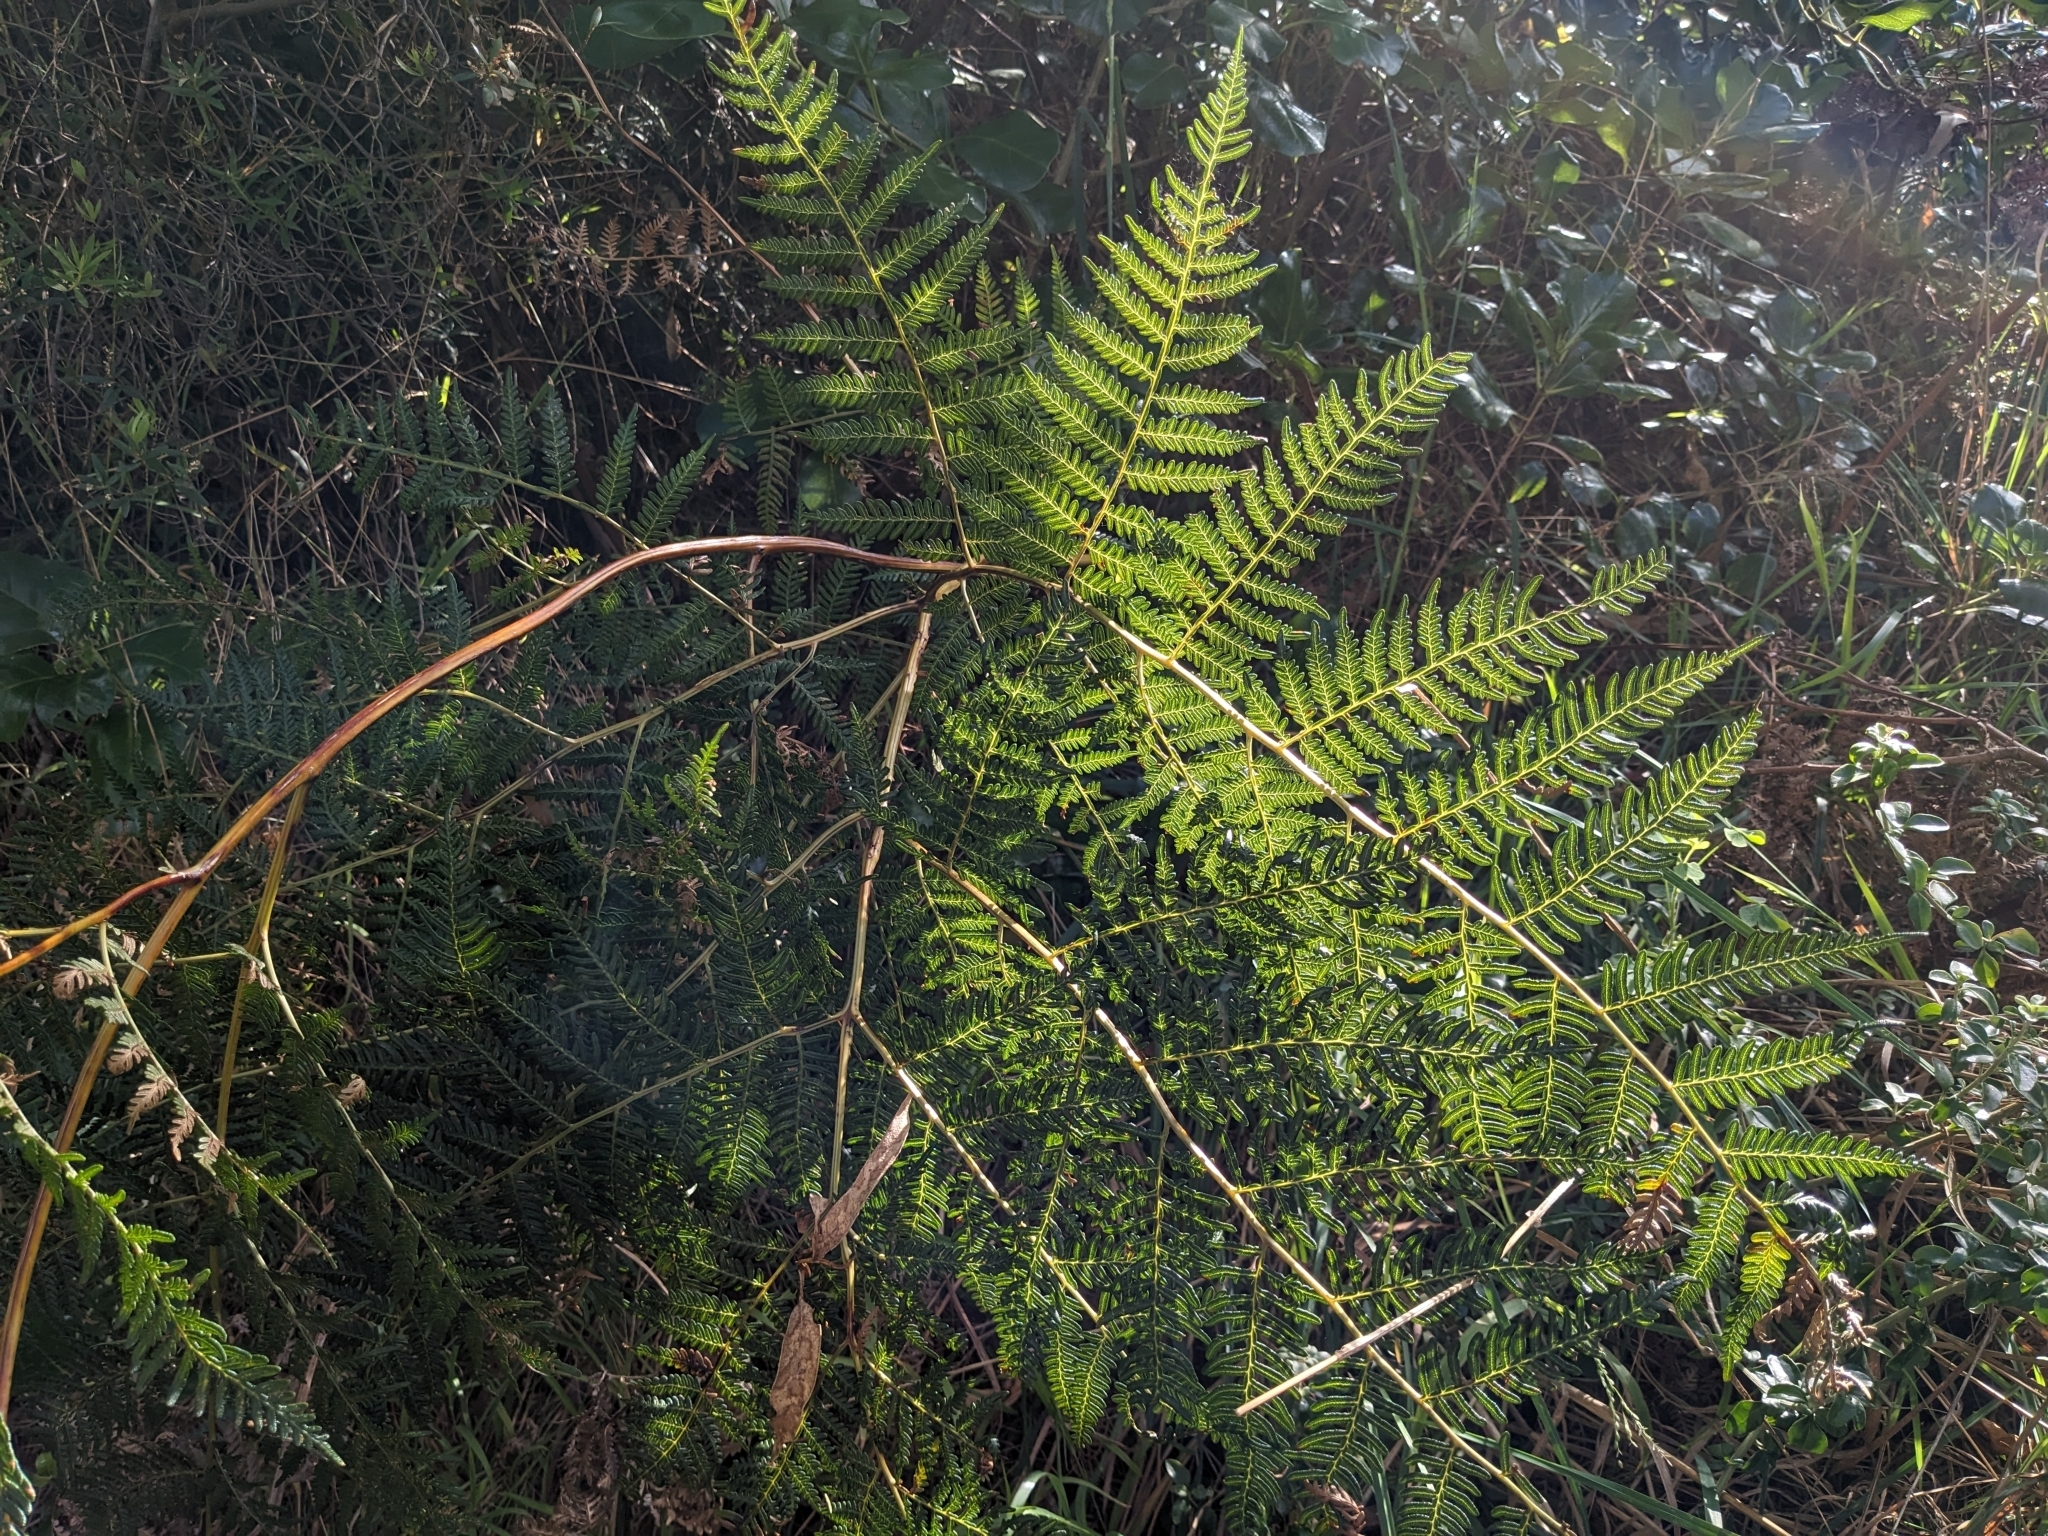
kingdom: Plantae
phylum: Tracheophyta
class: Polypodiopsida
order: Polypodiales
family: Dennstaedtiaceae
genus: Pteridium
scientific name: Pteridium esculentum
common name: Bracken fern
